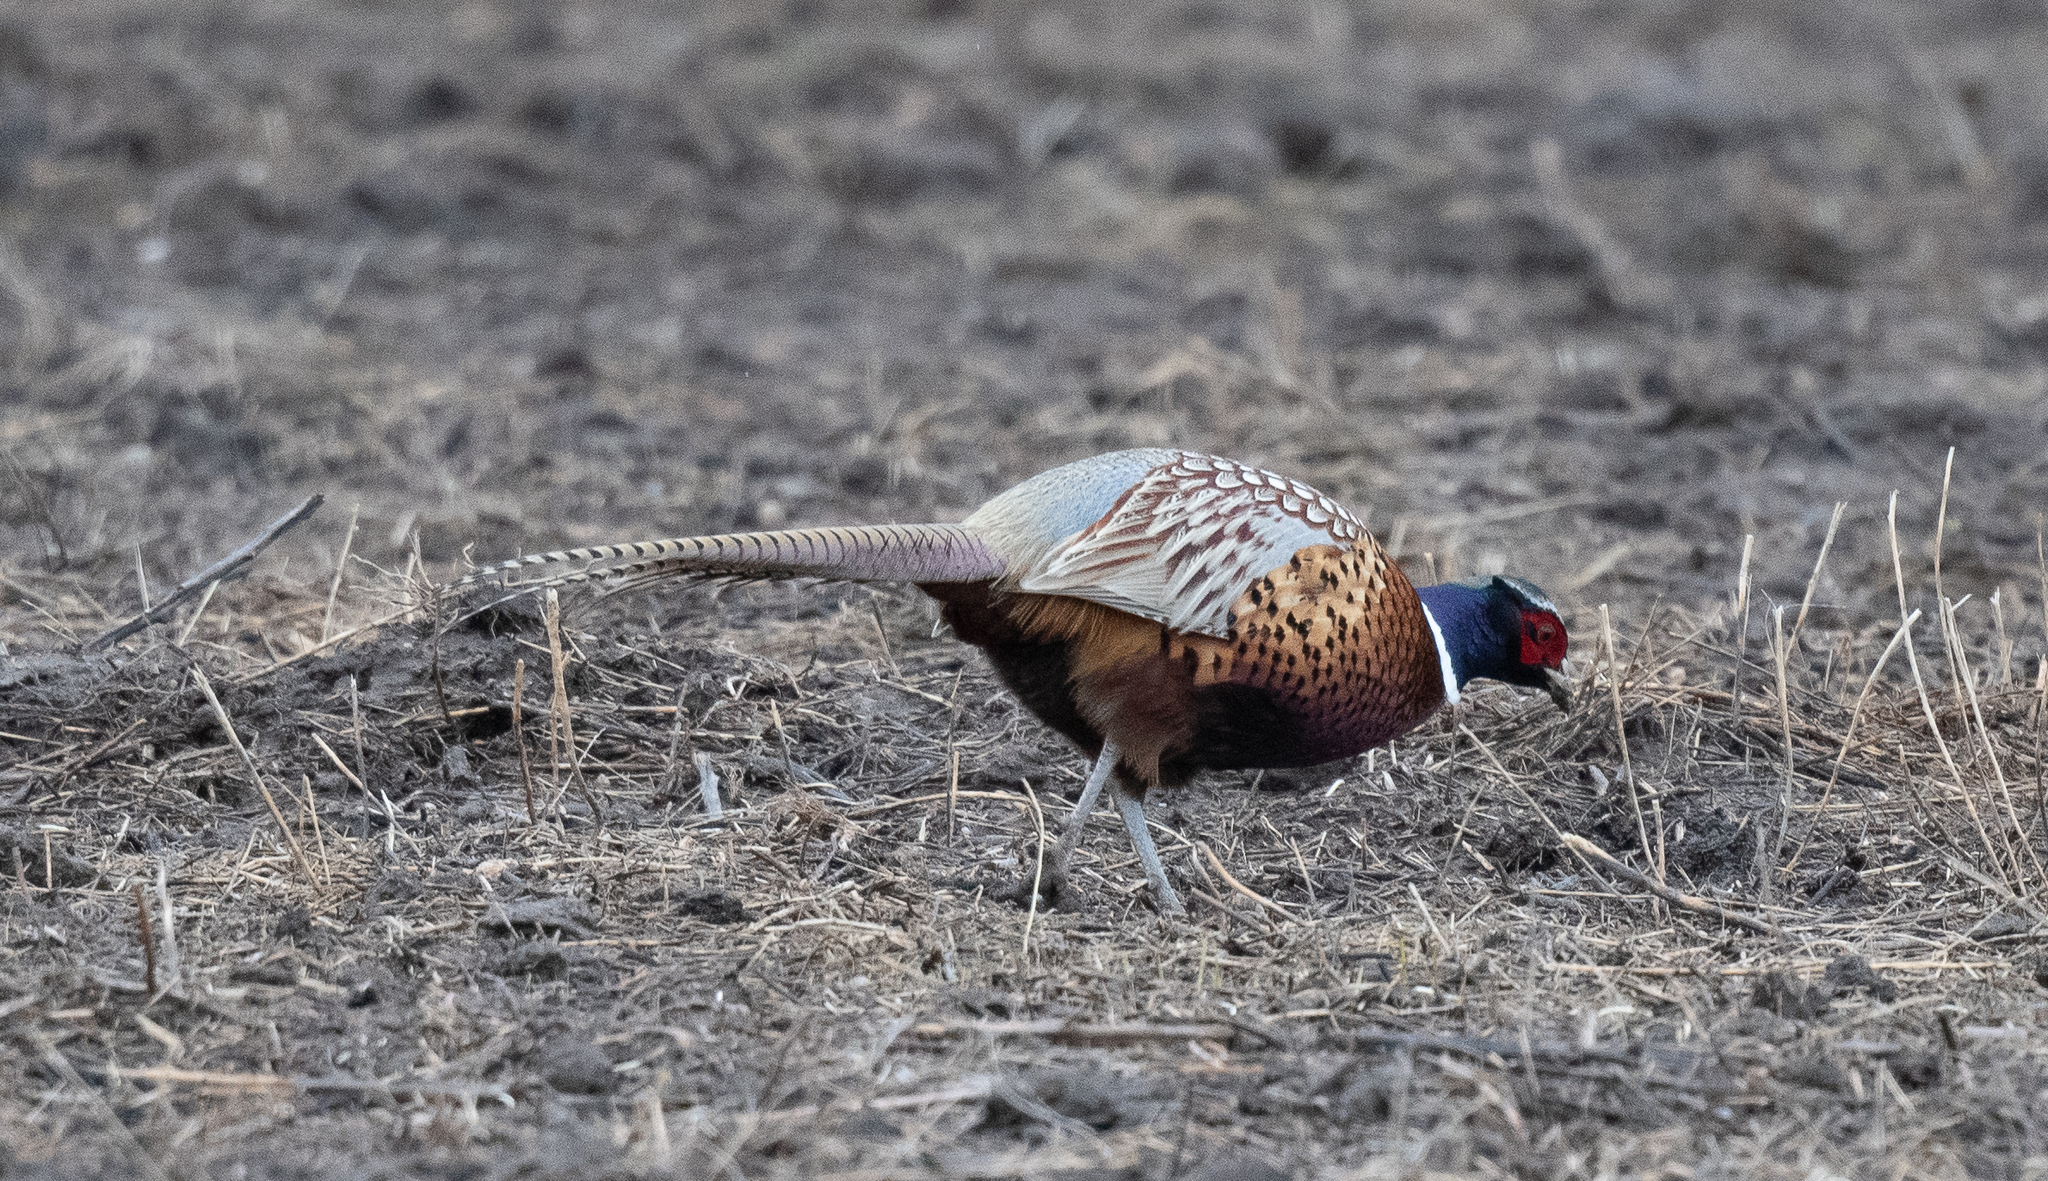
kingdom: Animalia
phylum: Chordata
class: Aves
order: Galliformes
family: Phasianidae
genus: Phasianus
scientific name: Phasianus colchicus
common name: Common pheasant
